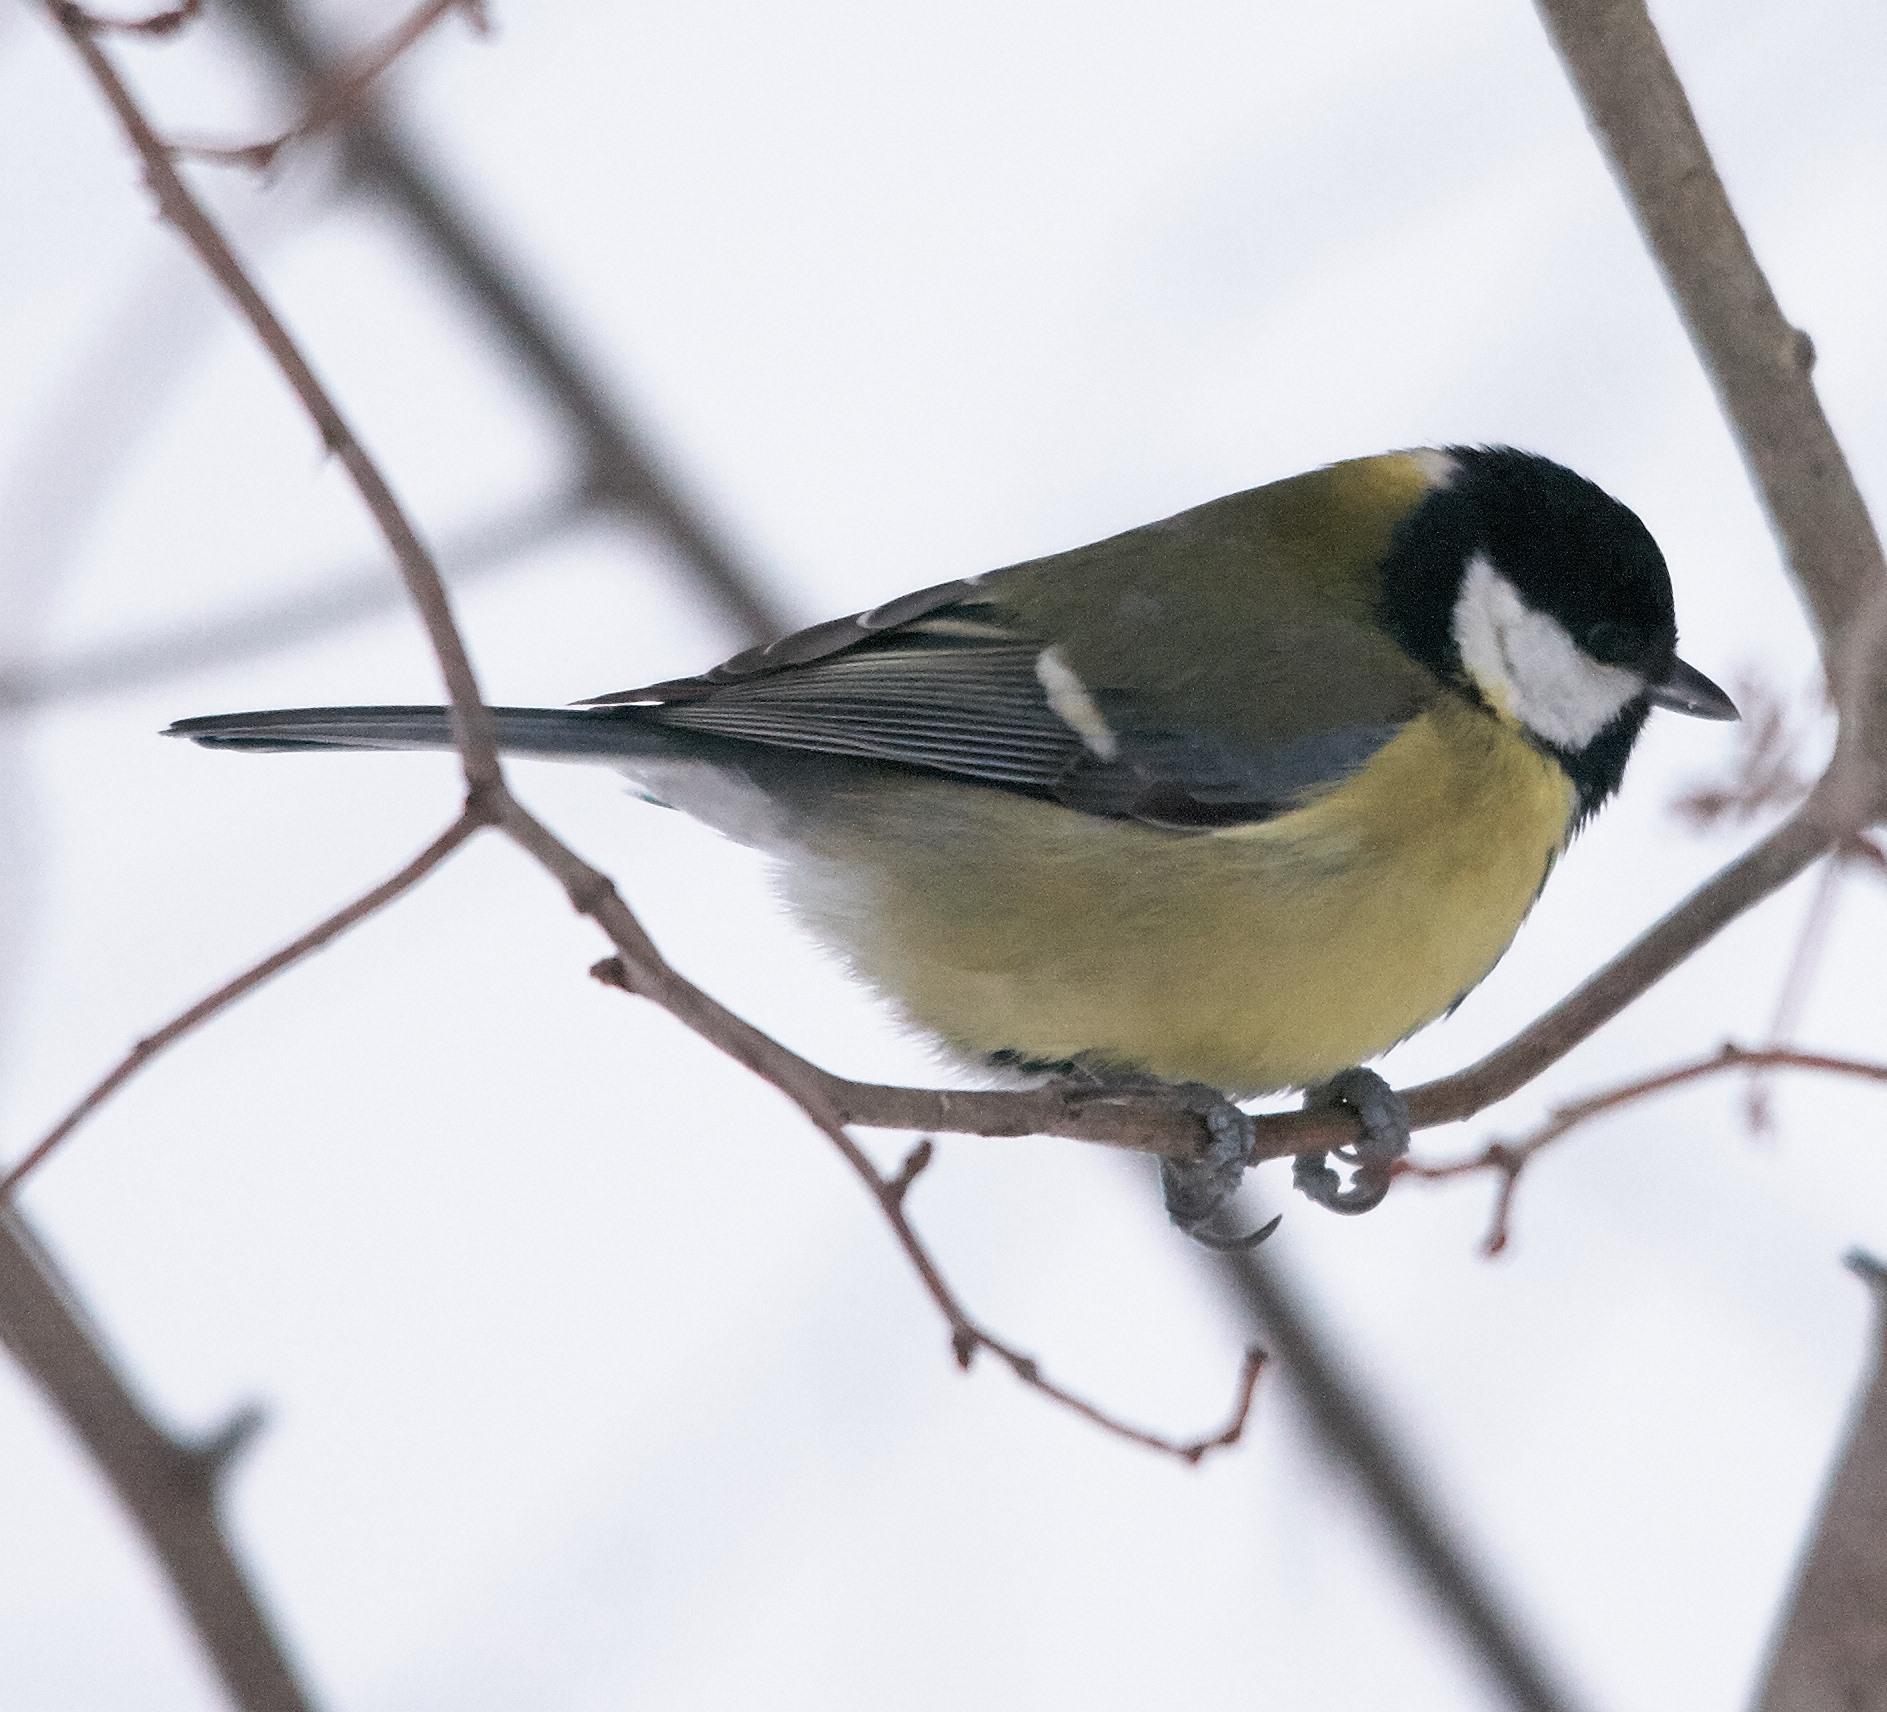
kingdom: Animalia
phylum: Chordata
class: Aves
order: Passeriformes
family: Paridae
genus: Parus
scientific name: Parus major
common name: Great tit
